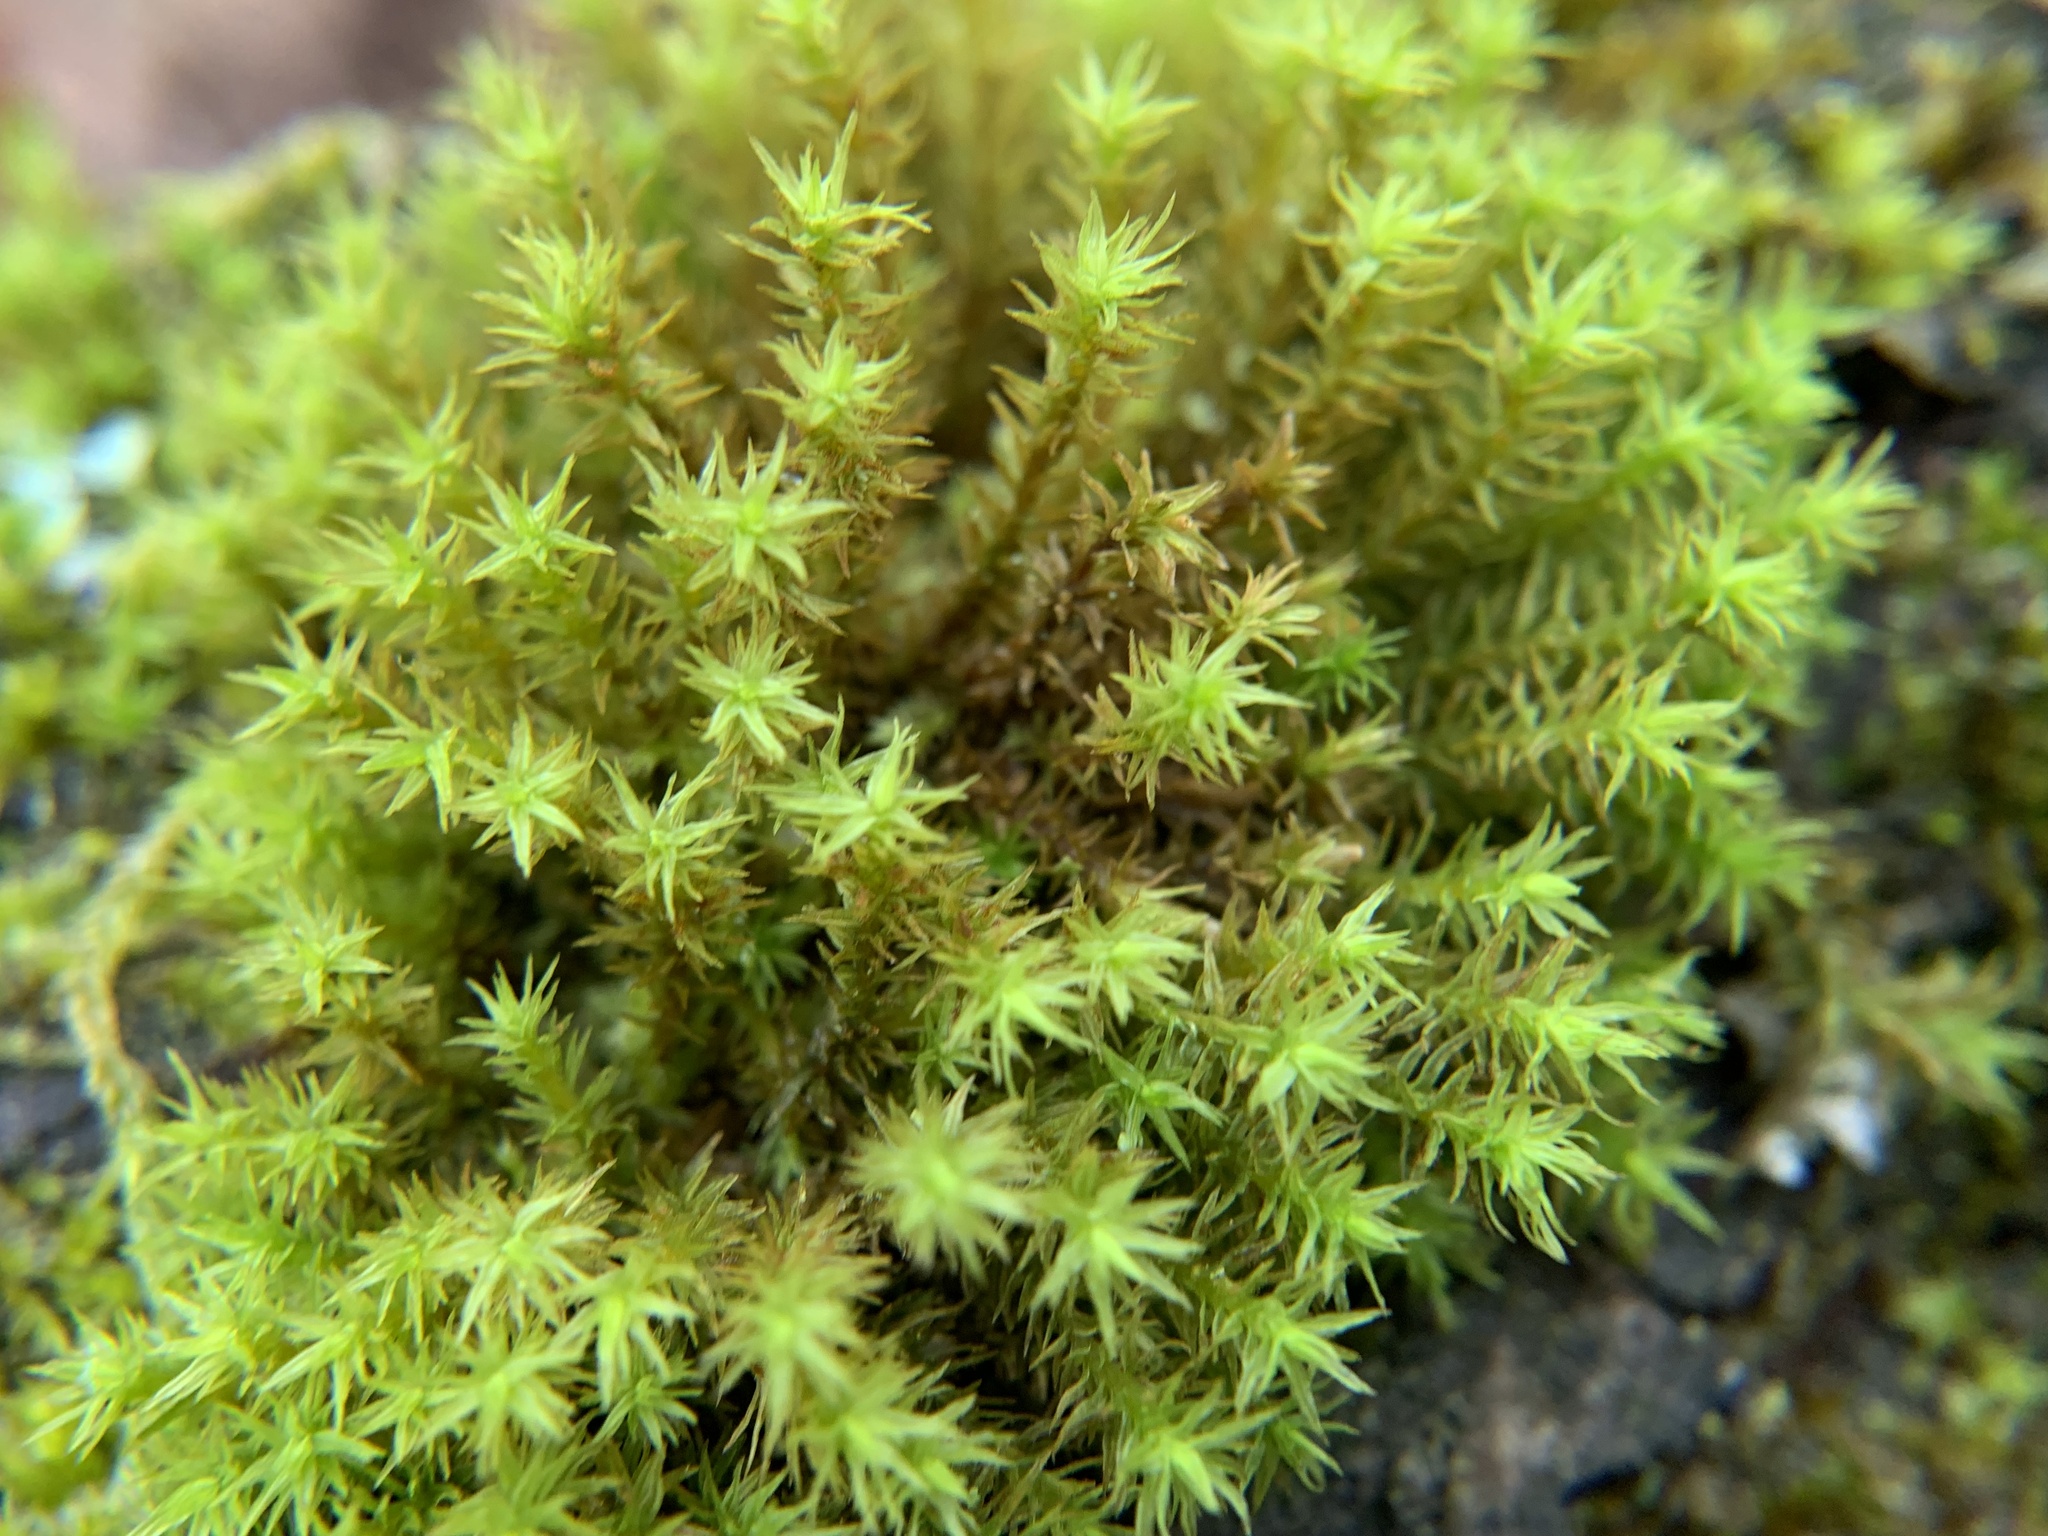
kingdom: Plantae
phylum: Bryophyta
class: Bryopsida
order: Orthotrichales
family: Orthotrichaceae
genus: Pulvigera
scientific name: Pulvigera lyellii
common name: Lyell's bristle-moss
